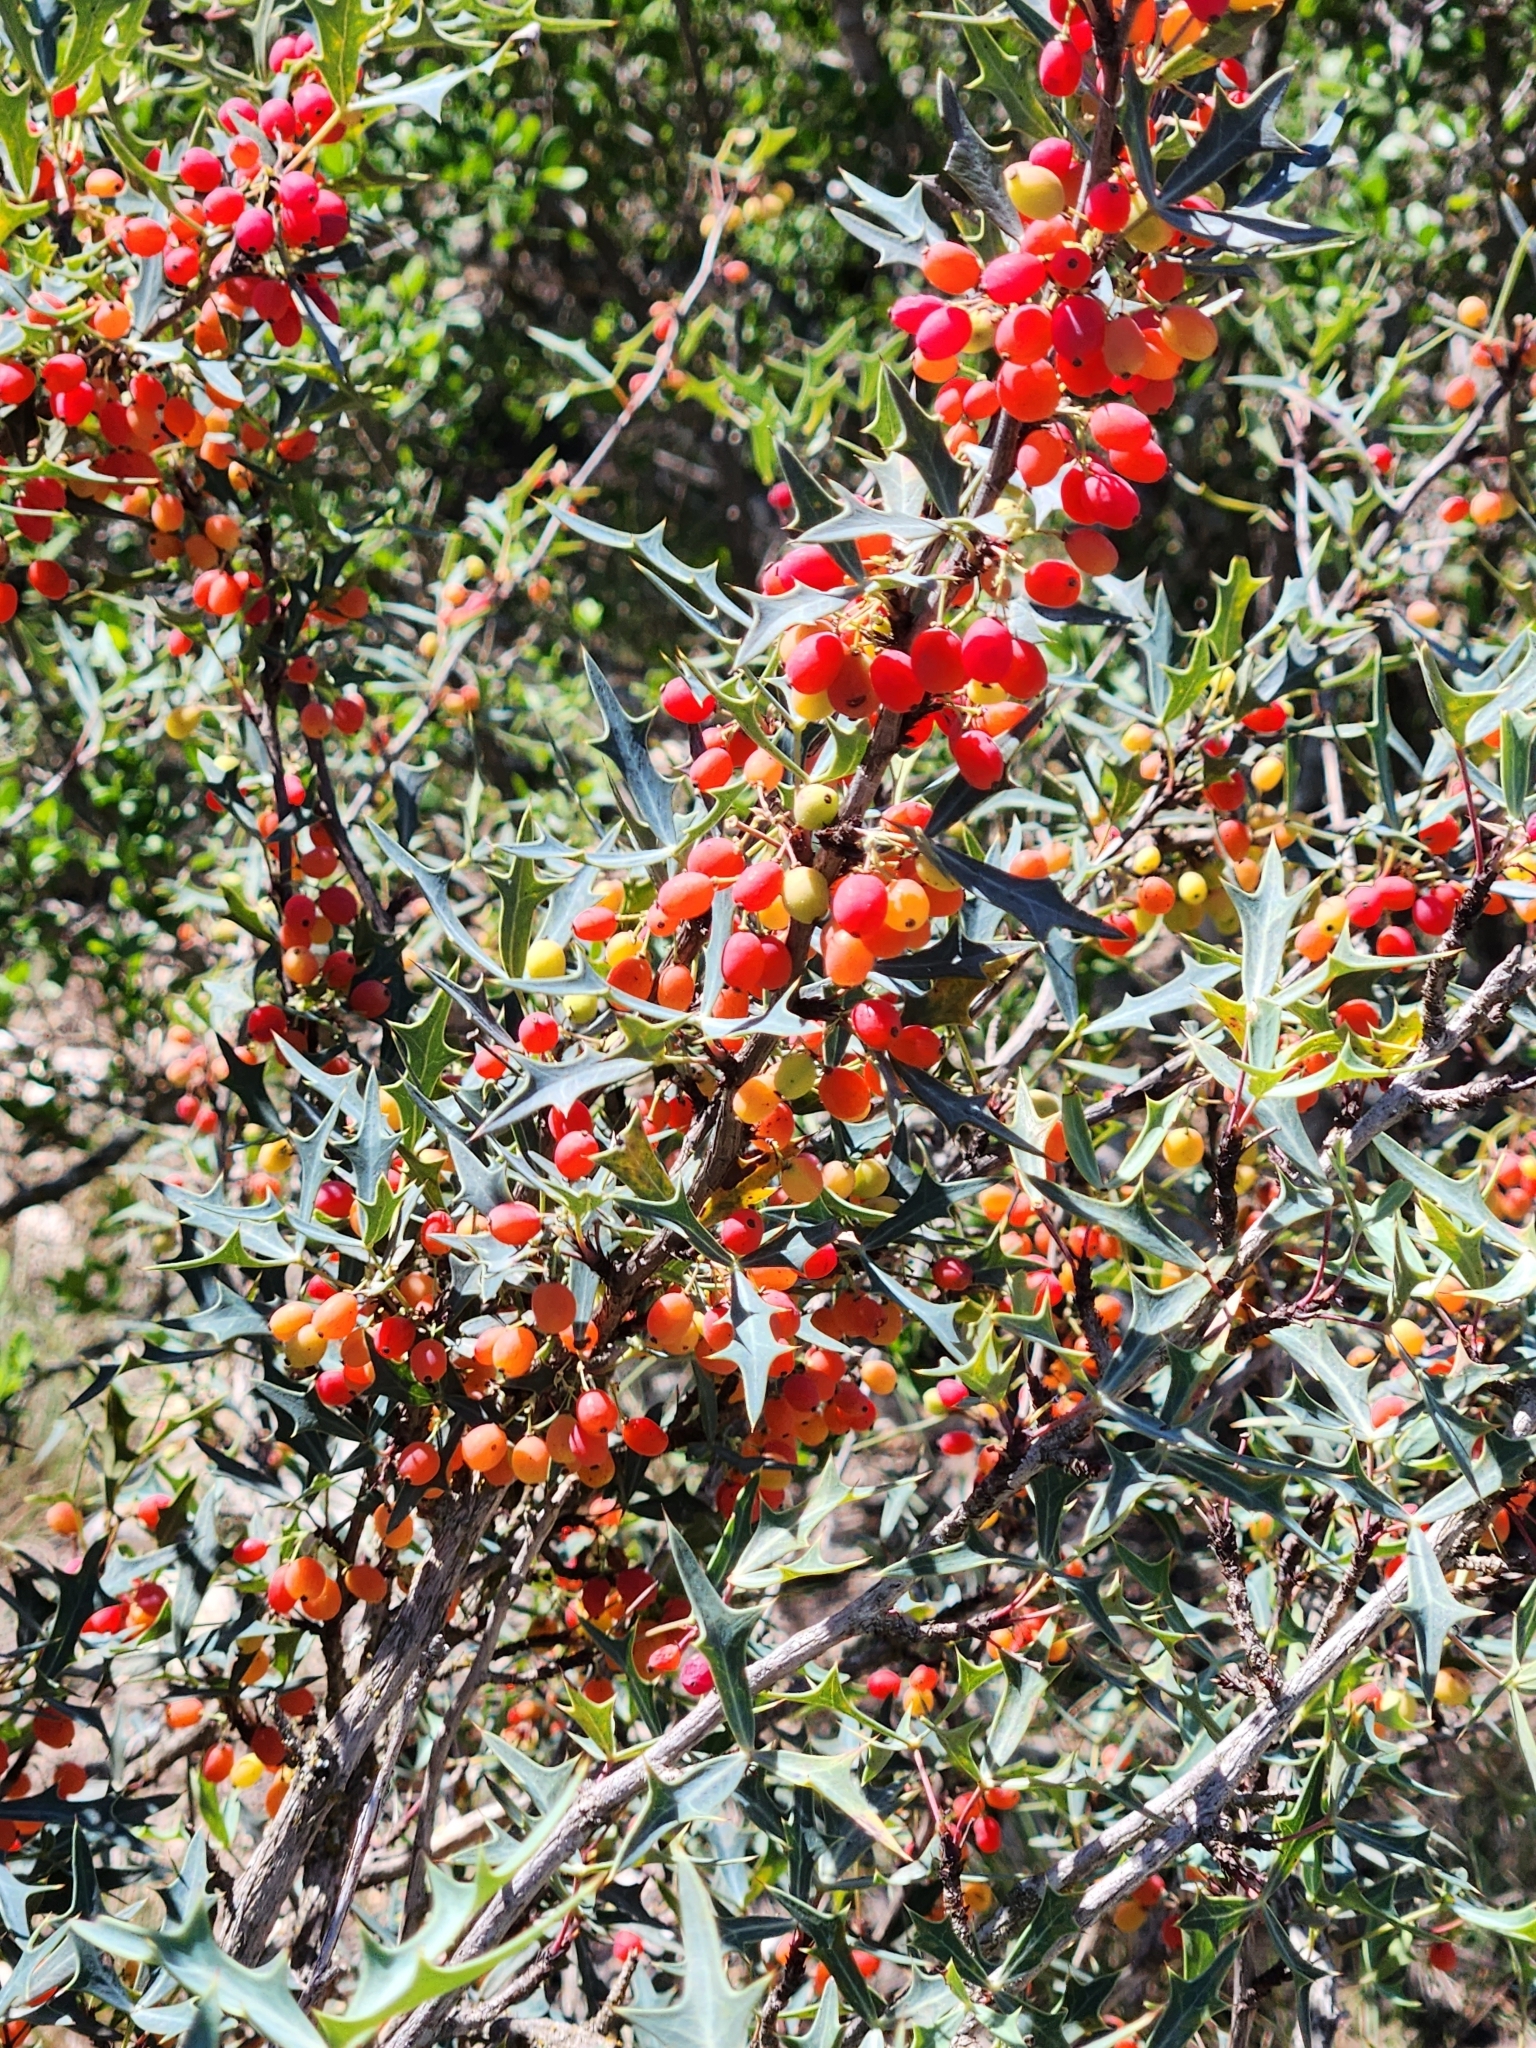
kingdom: Plantae
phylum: Tracheophyta
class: Magnoliopsida
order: Ranunculales
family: Berberidaceae
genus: Alloberberis
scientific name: Alloberberis trifoliolata
